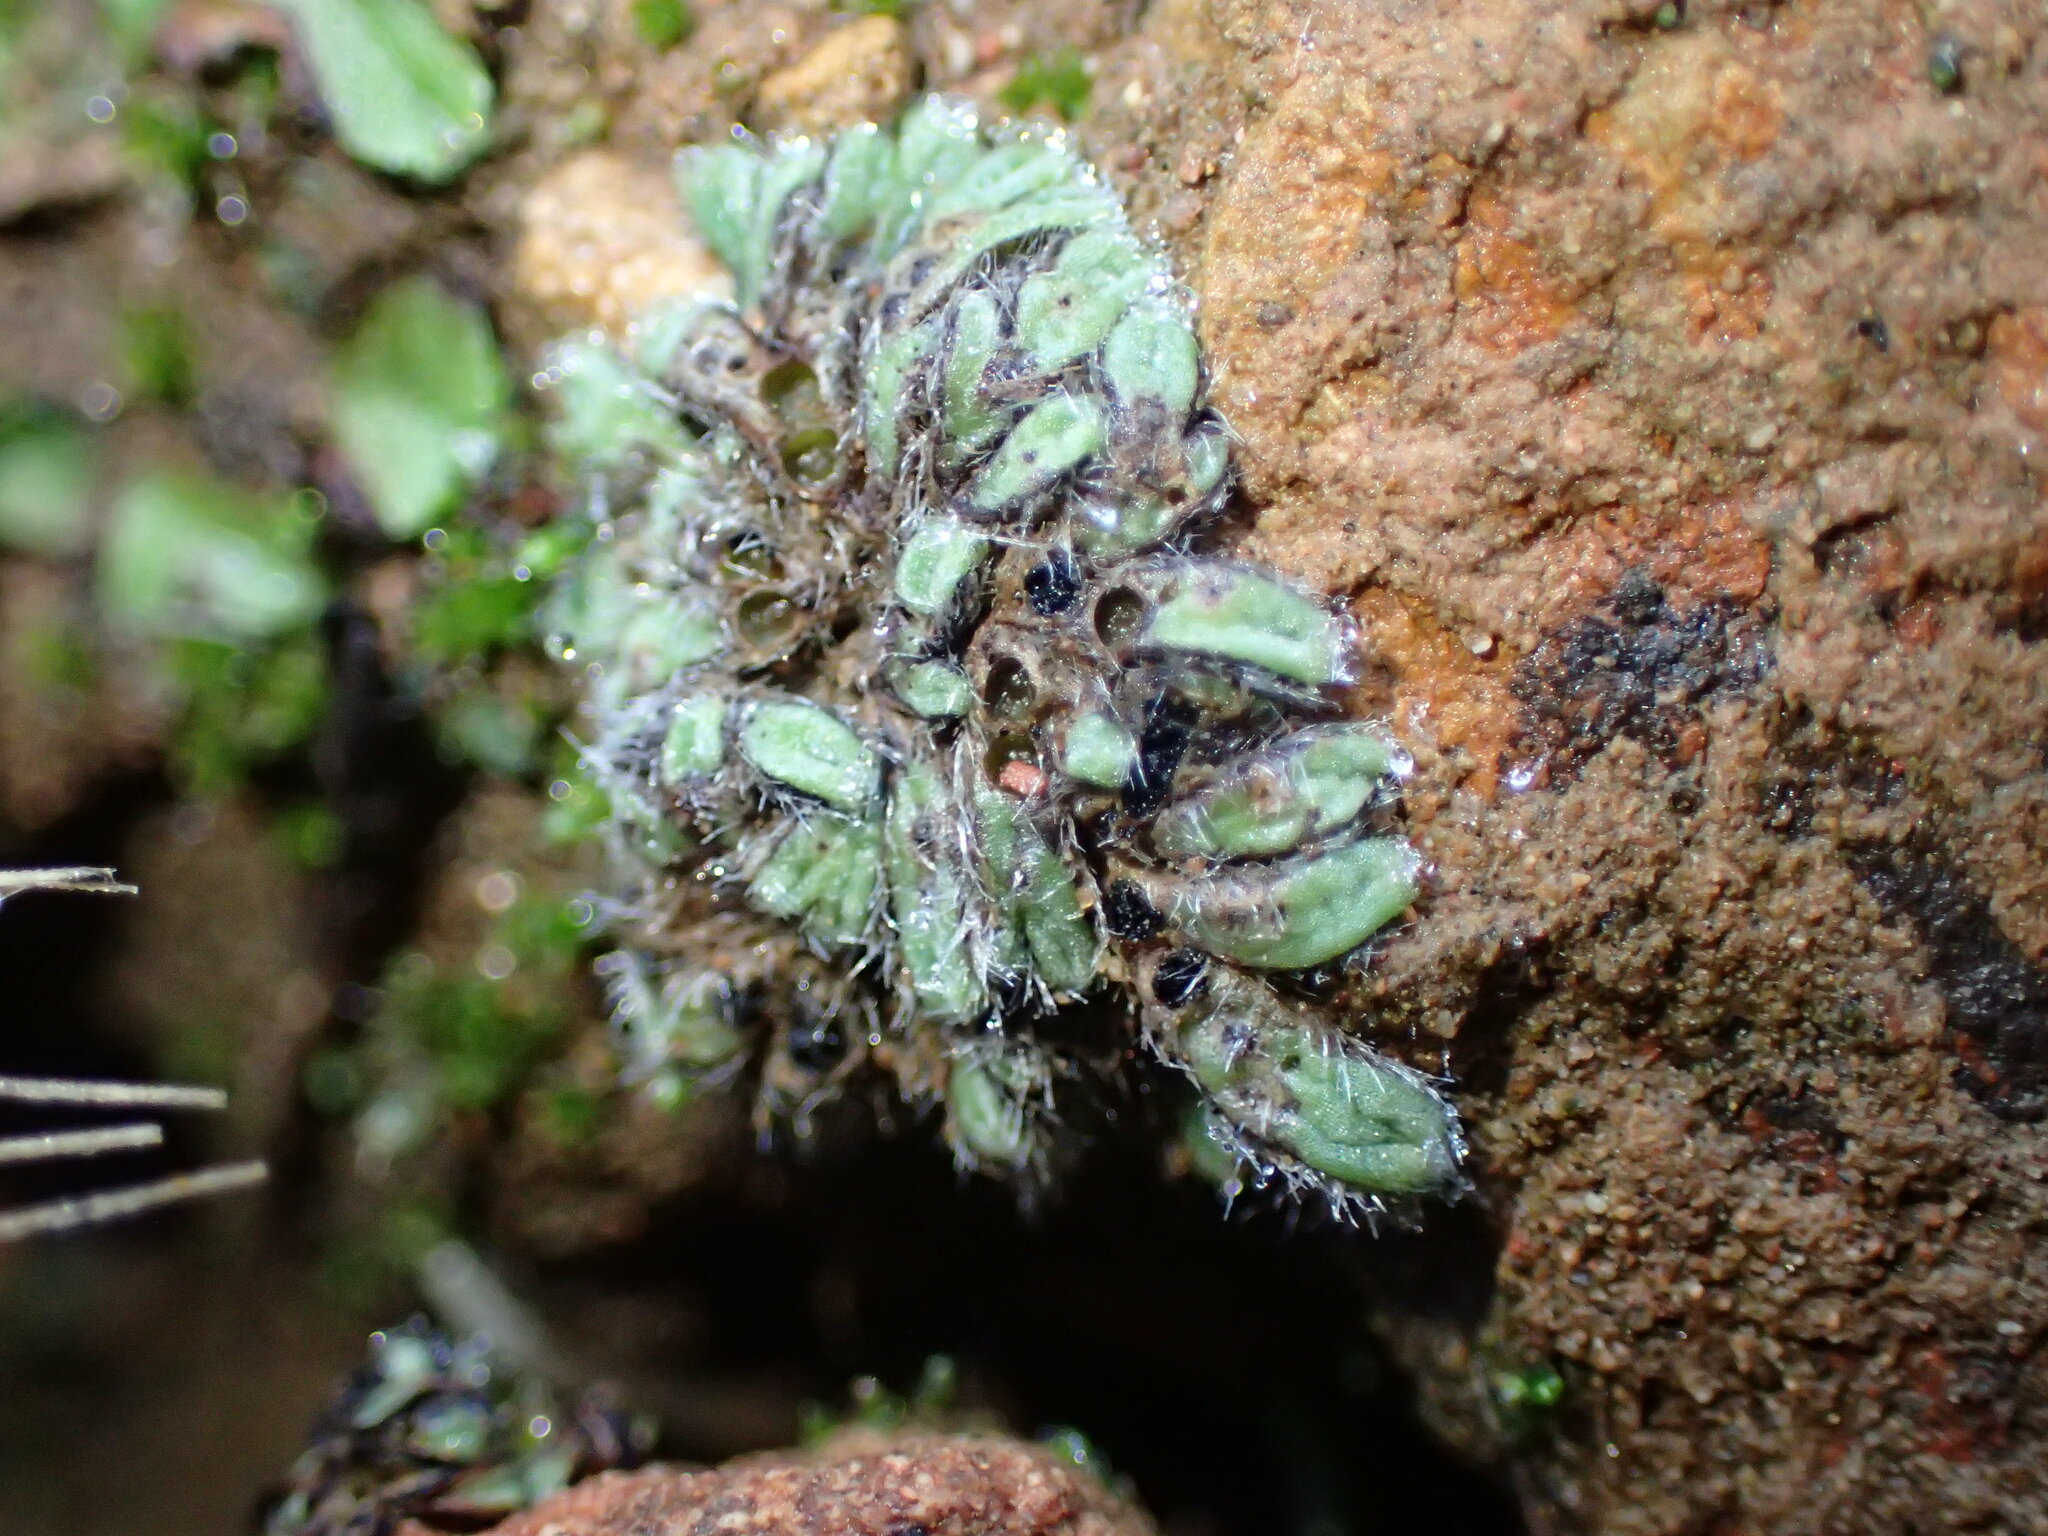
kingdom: Plantae
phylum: Marchantiophyta
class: Marchantiopsida
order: Marchantiales
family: Ricciaceae
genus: Riccia
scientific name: Riccia trichocarpa
